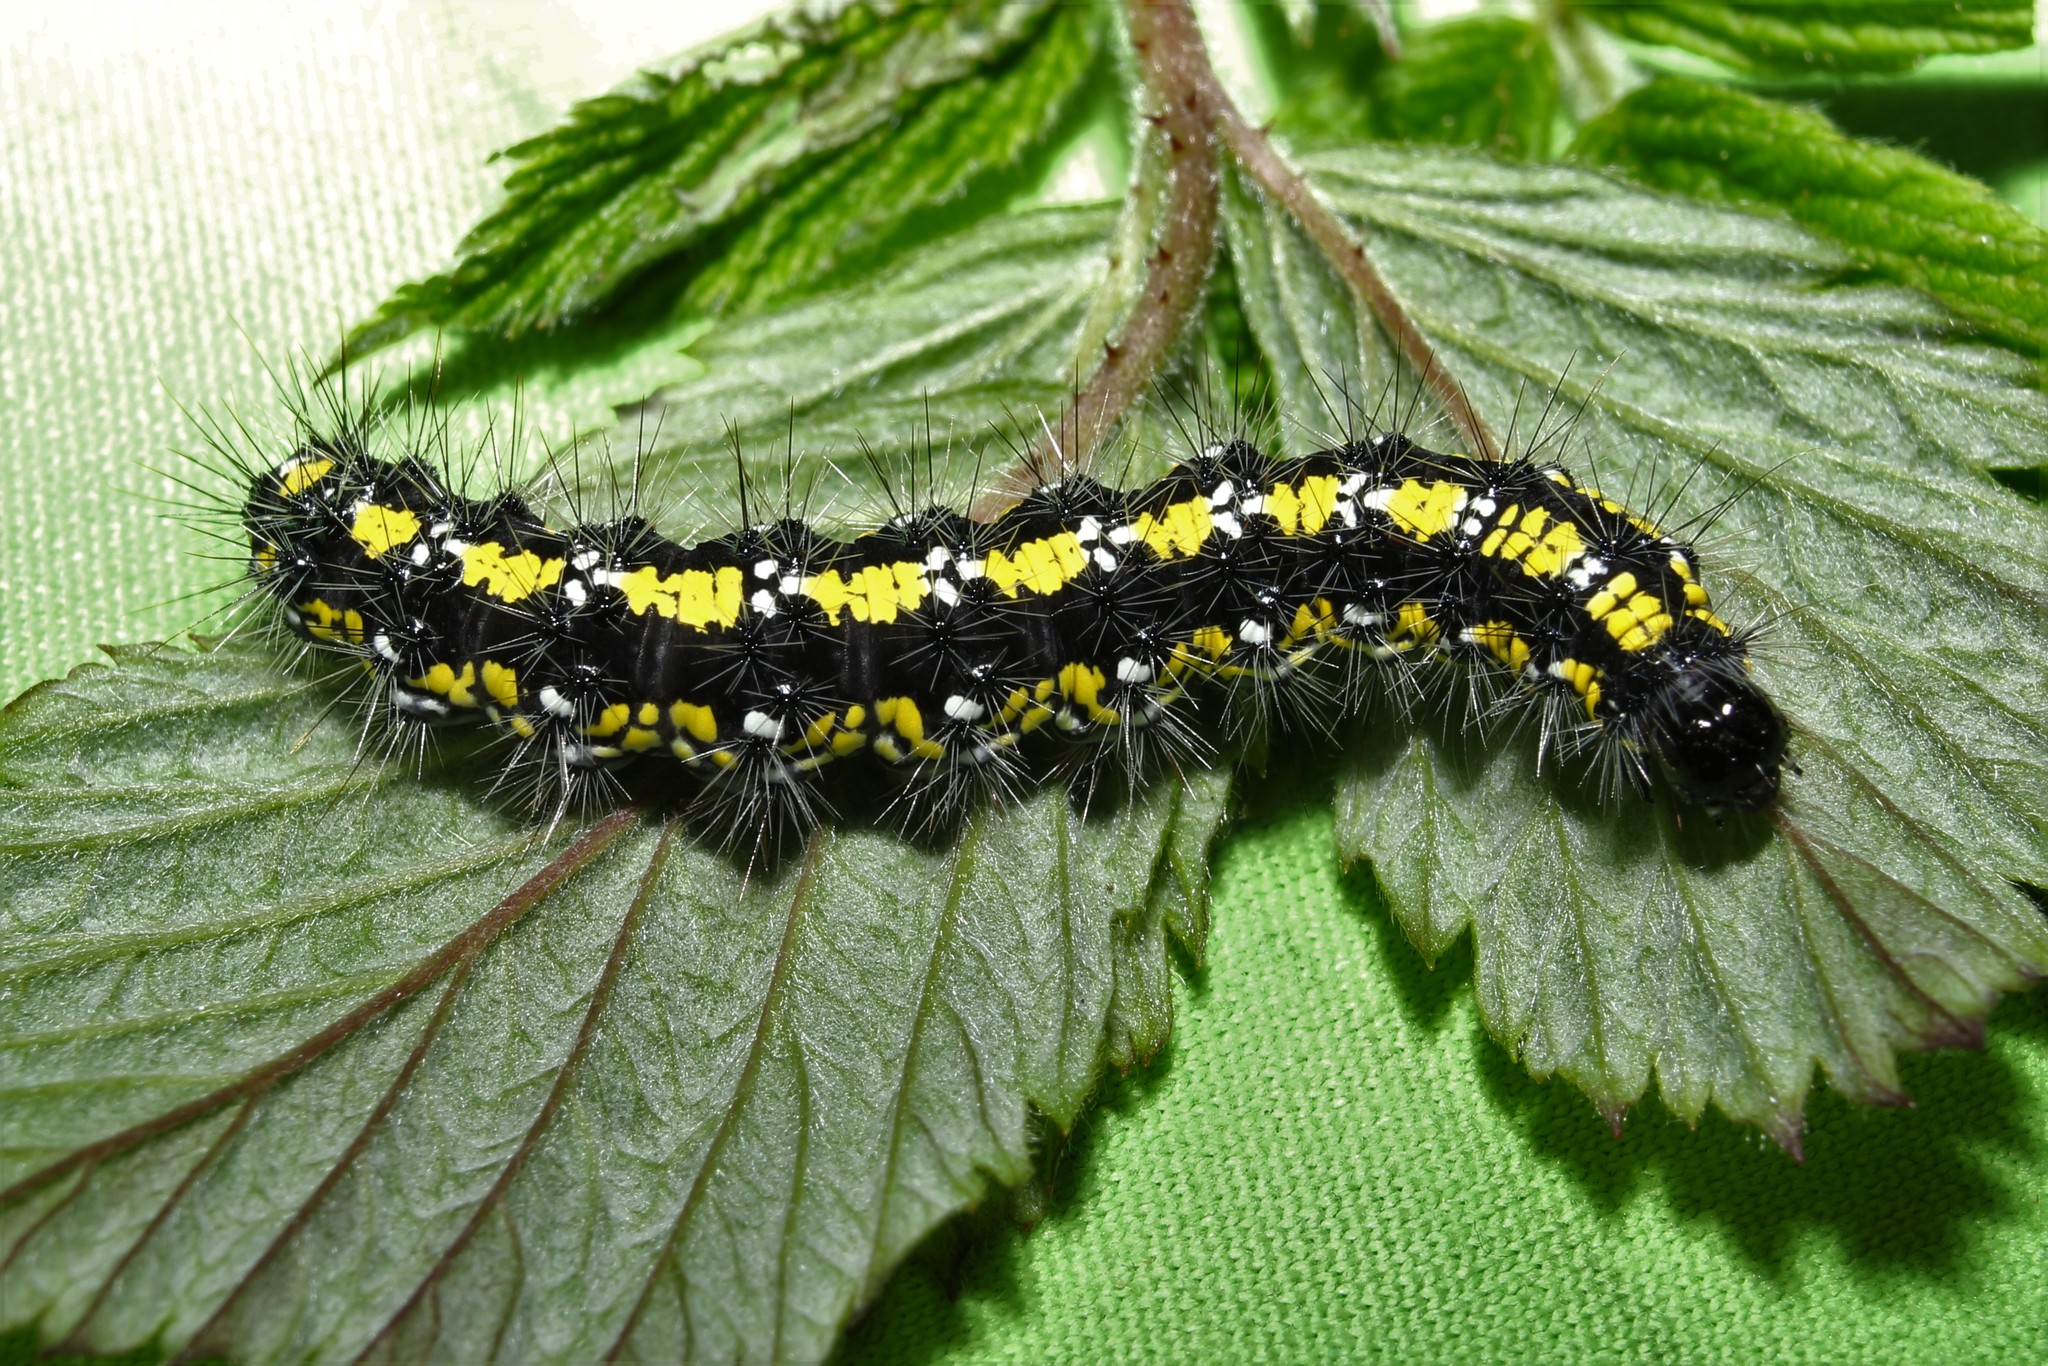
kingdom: Animalia
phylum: Arthropoda
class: Insecta
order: Lepidoptera
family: Erebidae
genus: Callimorpha
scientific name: Callimorpha dominula
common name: Scarlet tiger
